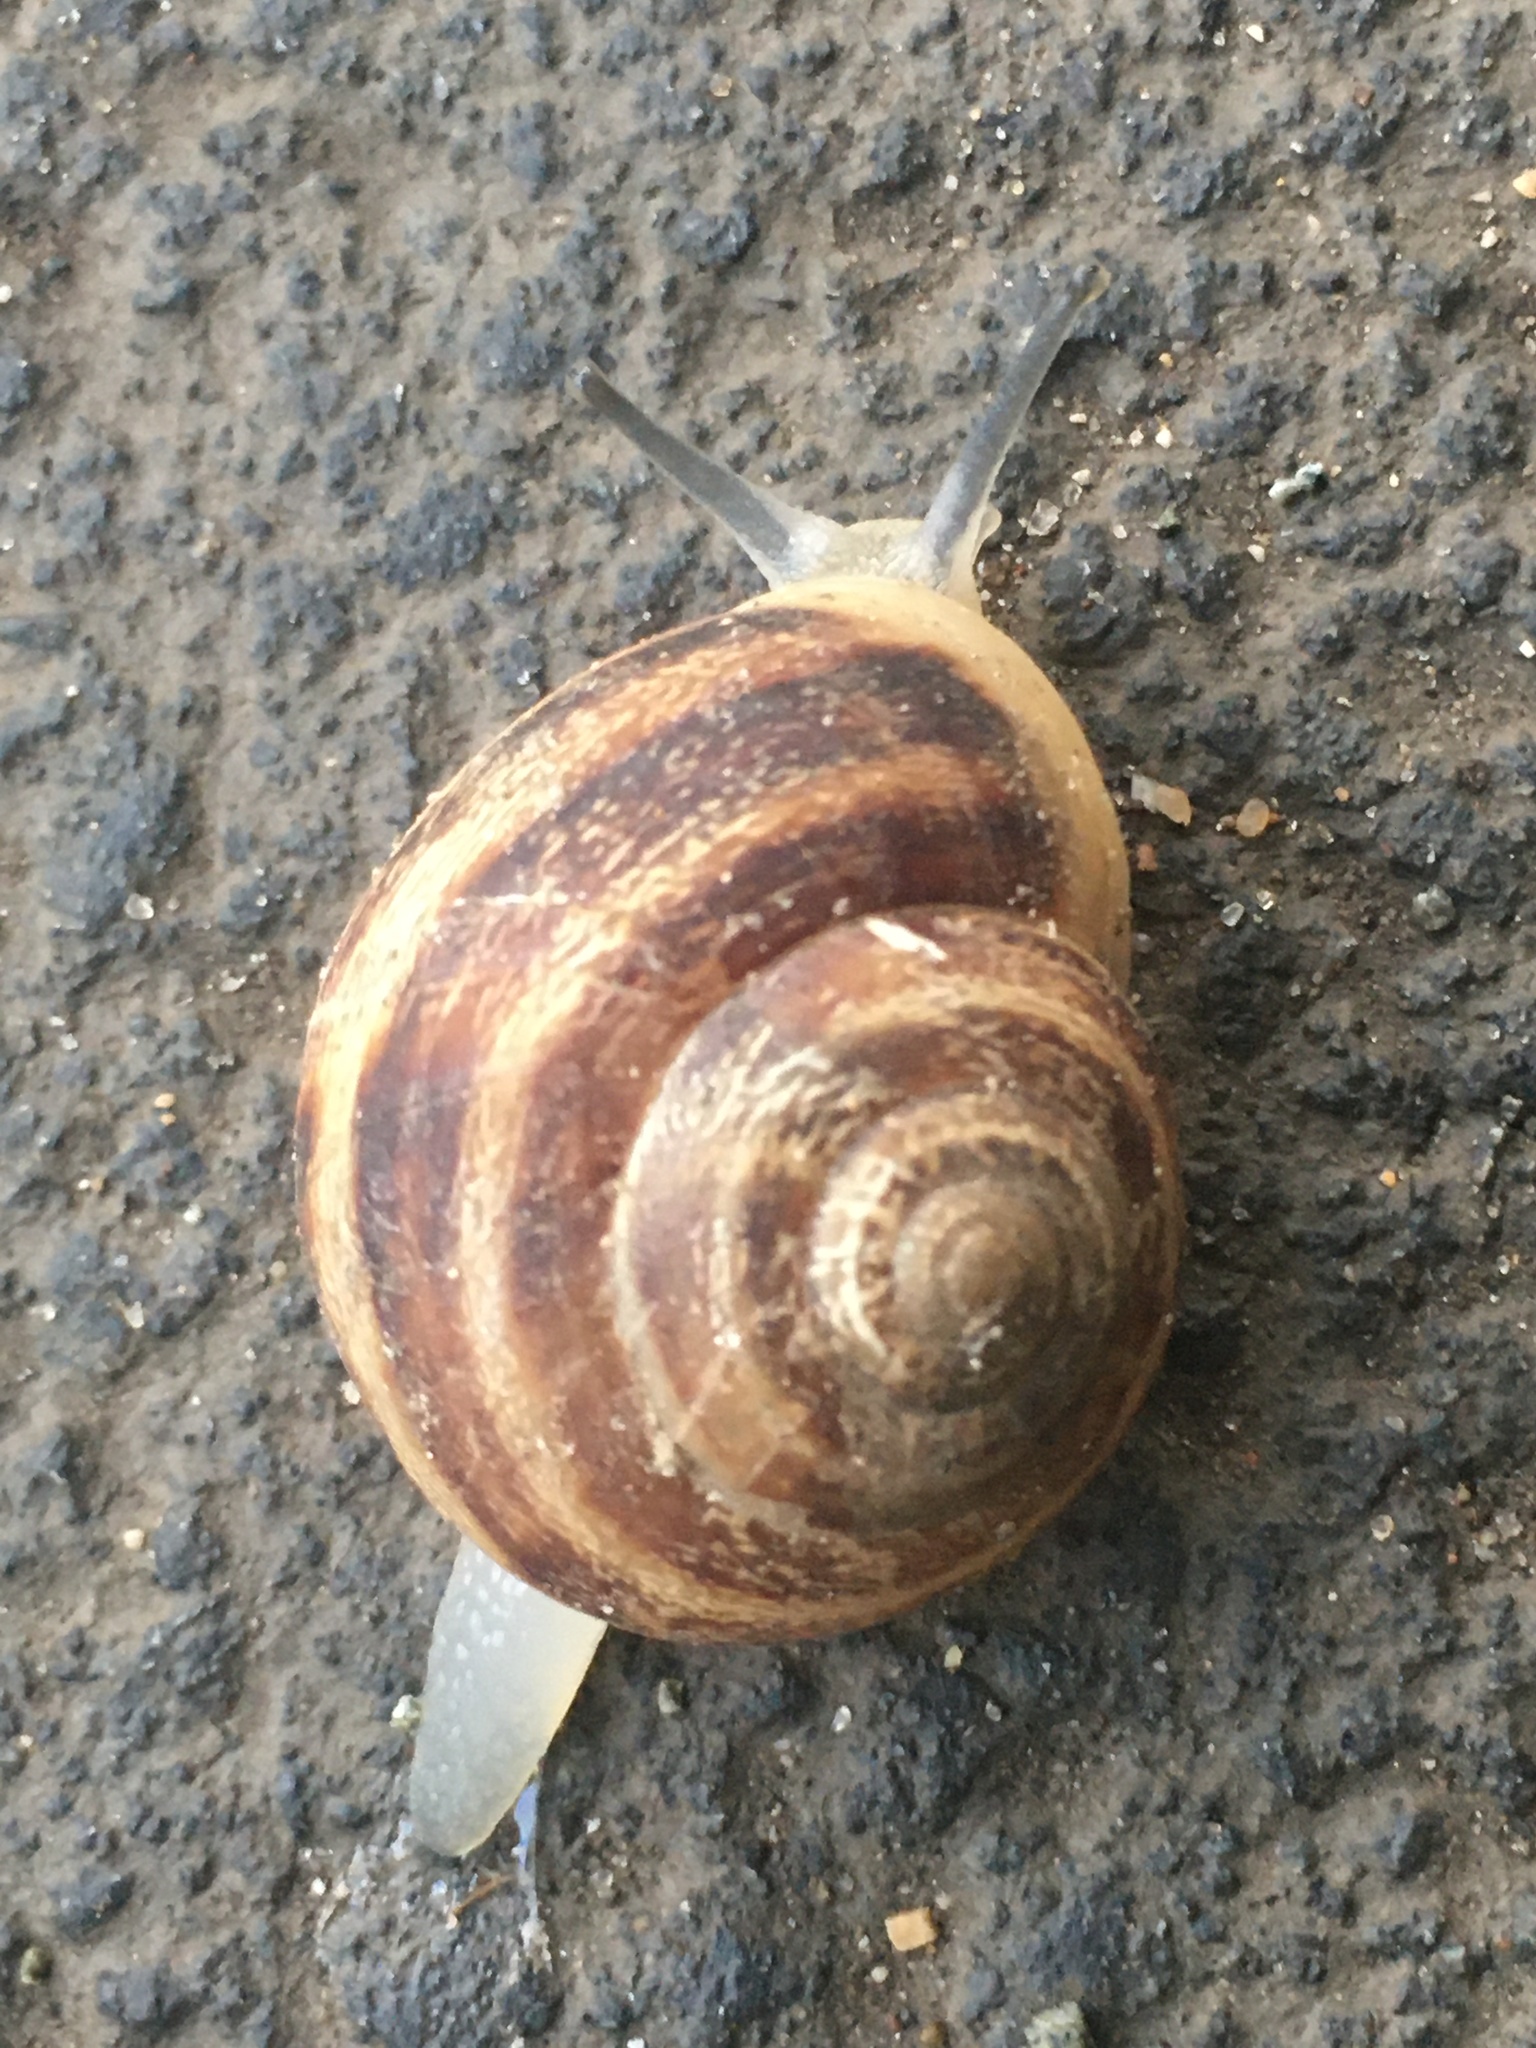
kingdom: Animalia
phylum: Mollusca
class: Gastropoda
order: Stylommatophora
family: Helicidae
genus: Eobania
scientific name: Eobania vermiculata
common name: Chocolateband snail
